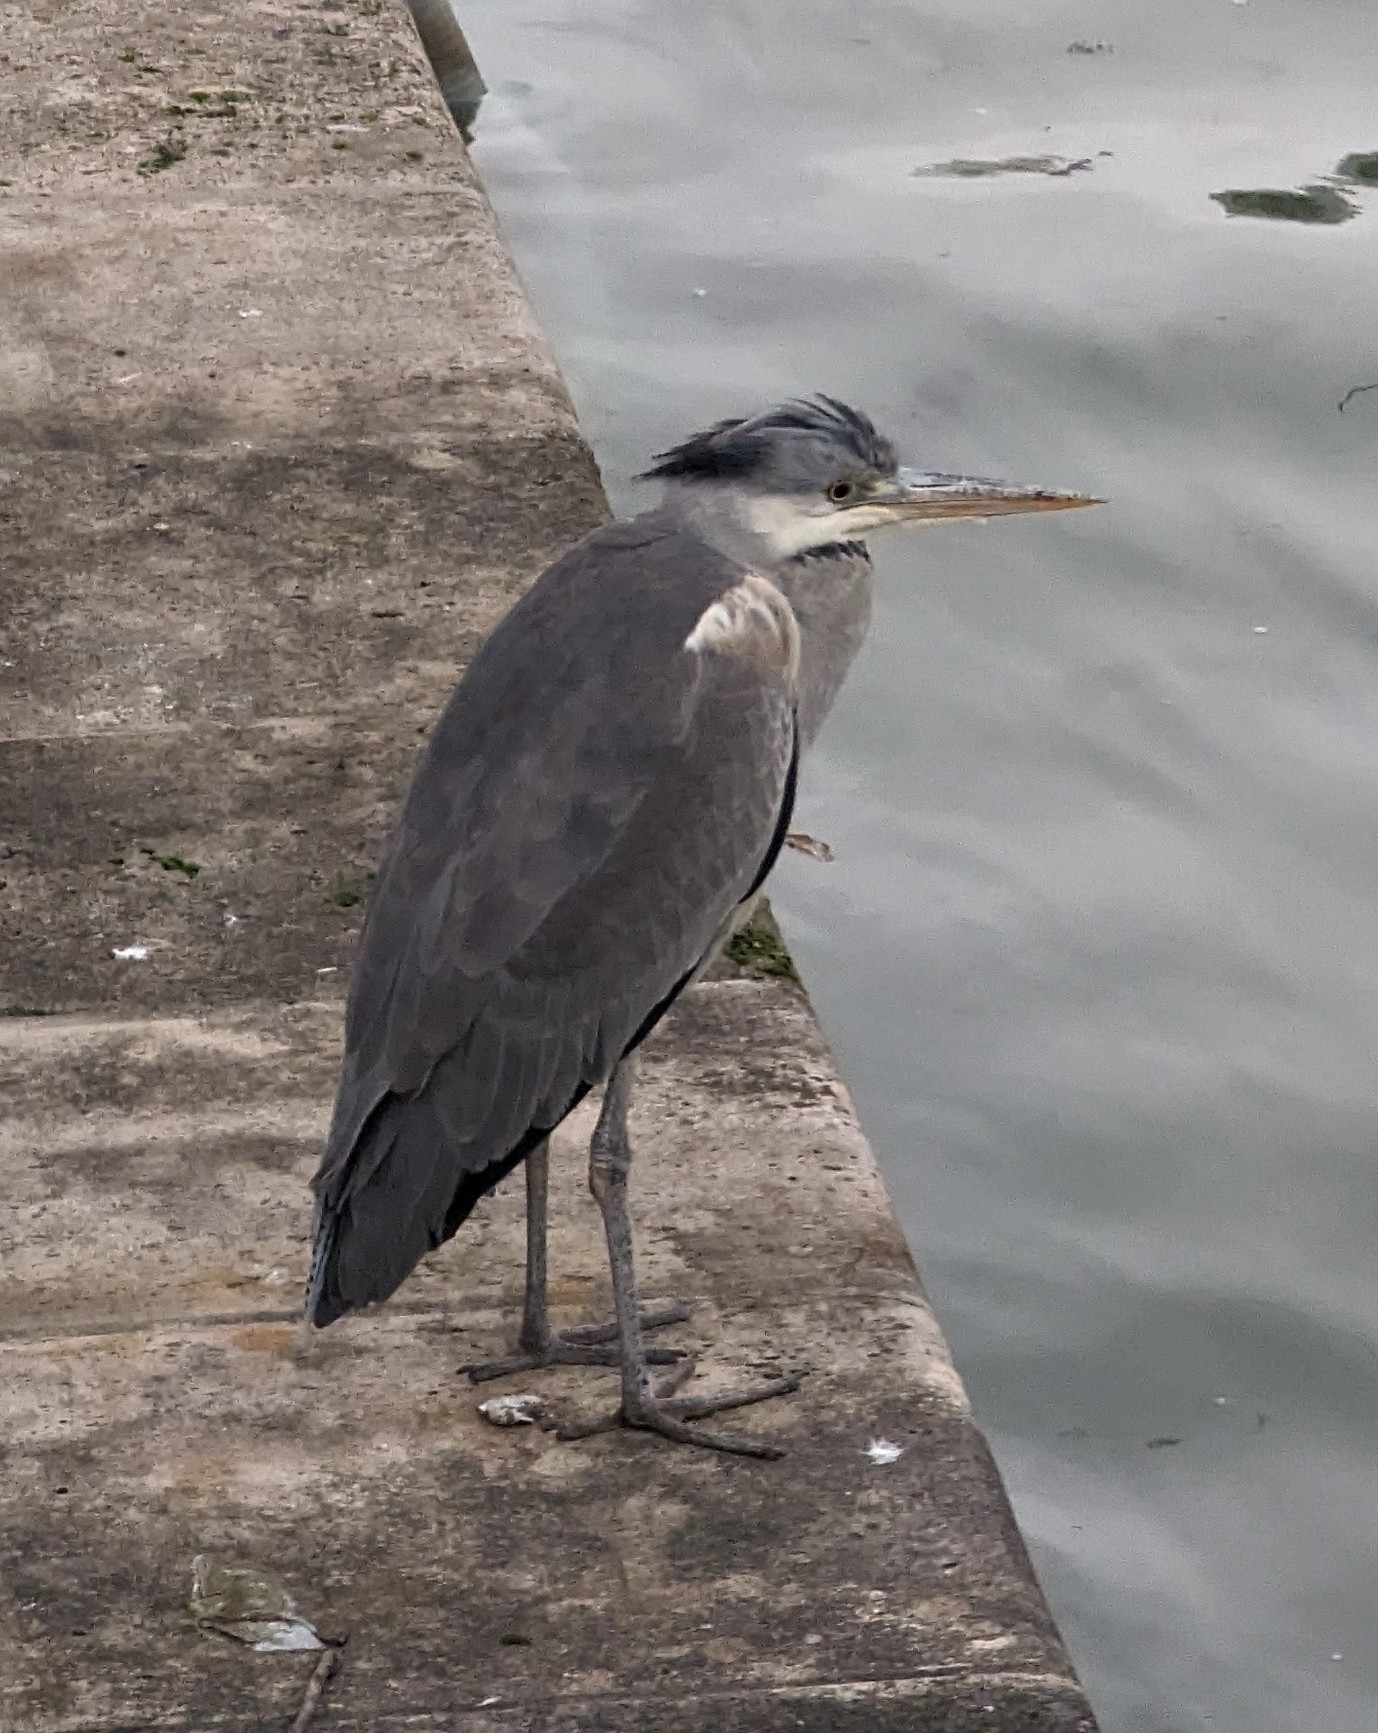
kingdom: Animalia
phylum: Chordata
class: Aves
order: Pelecaniformes
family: Ardeidae
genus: Ardea
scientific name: Ardea cinerea
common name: Grey heron
